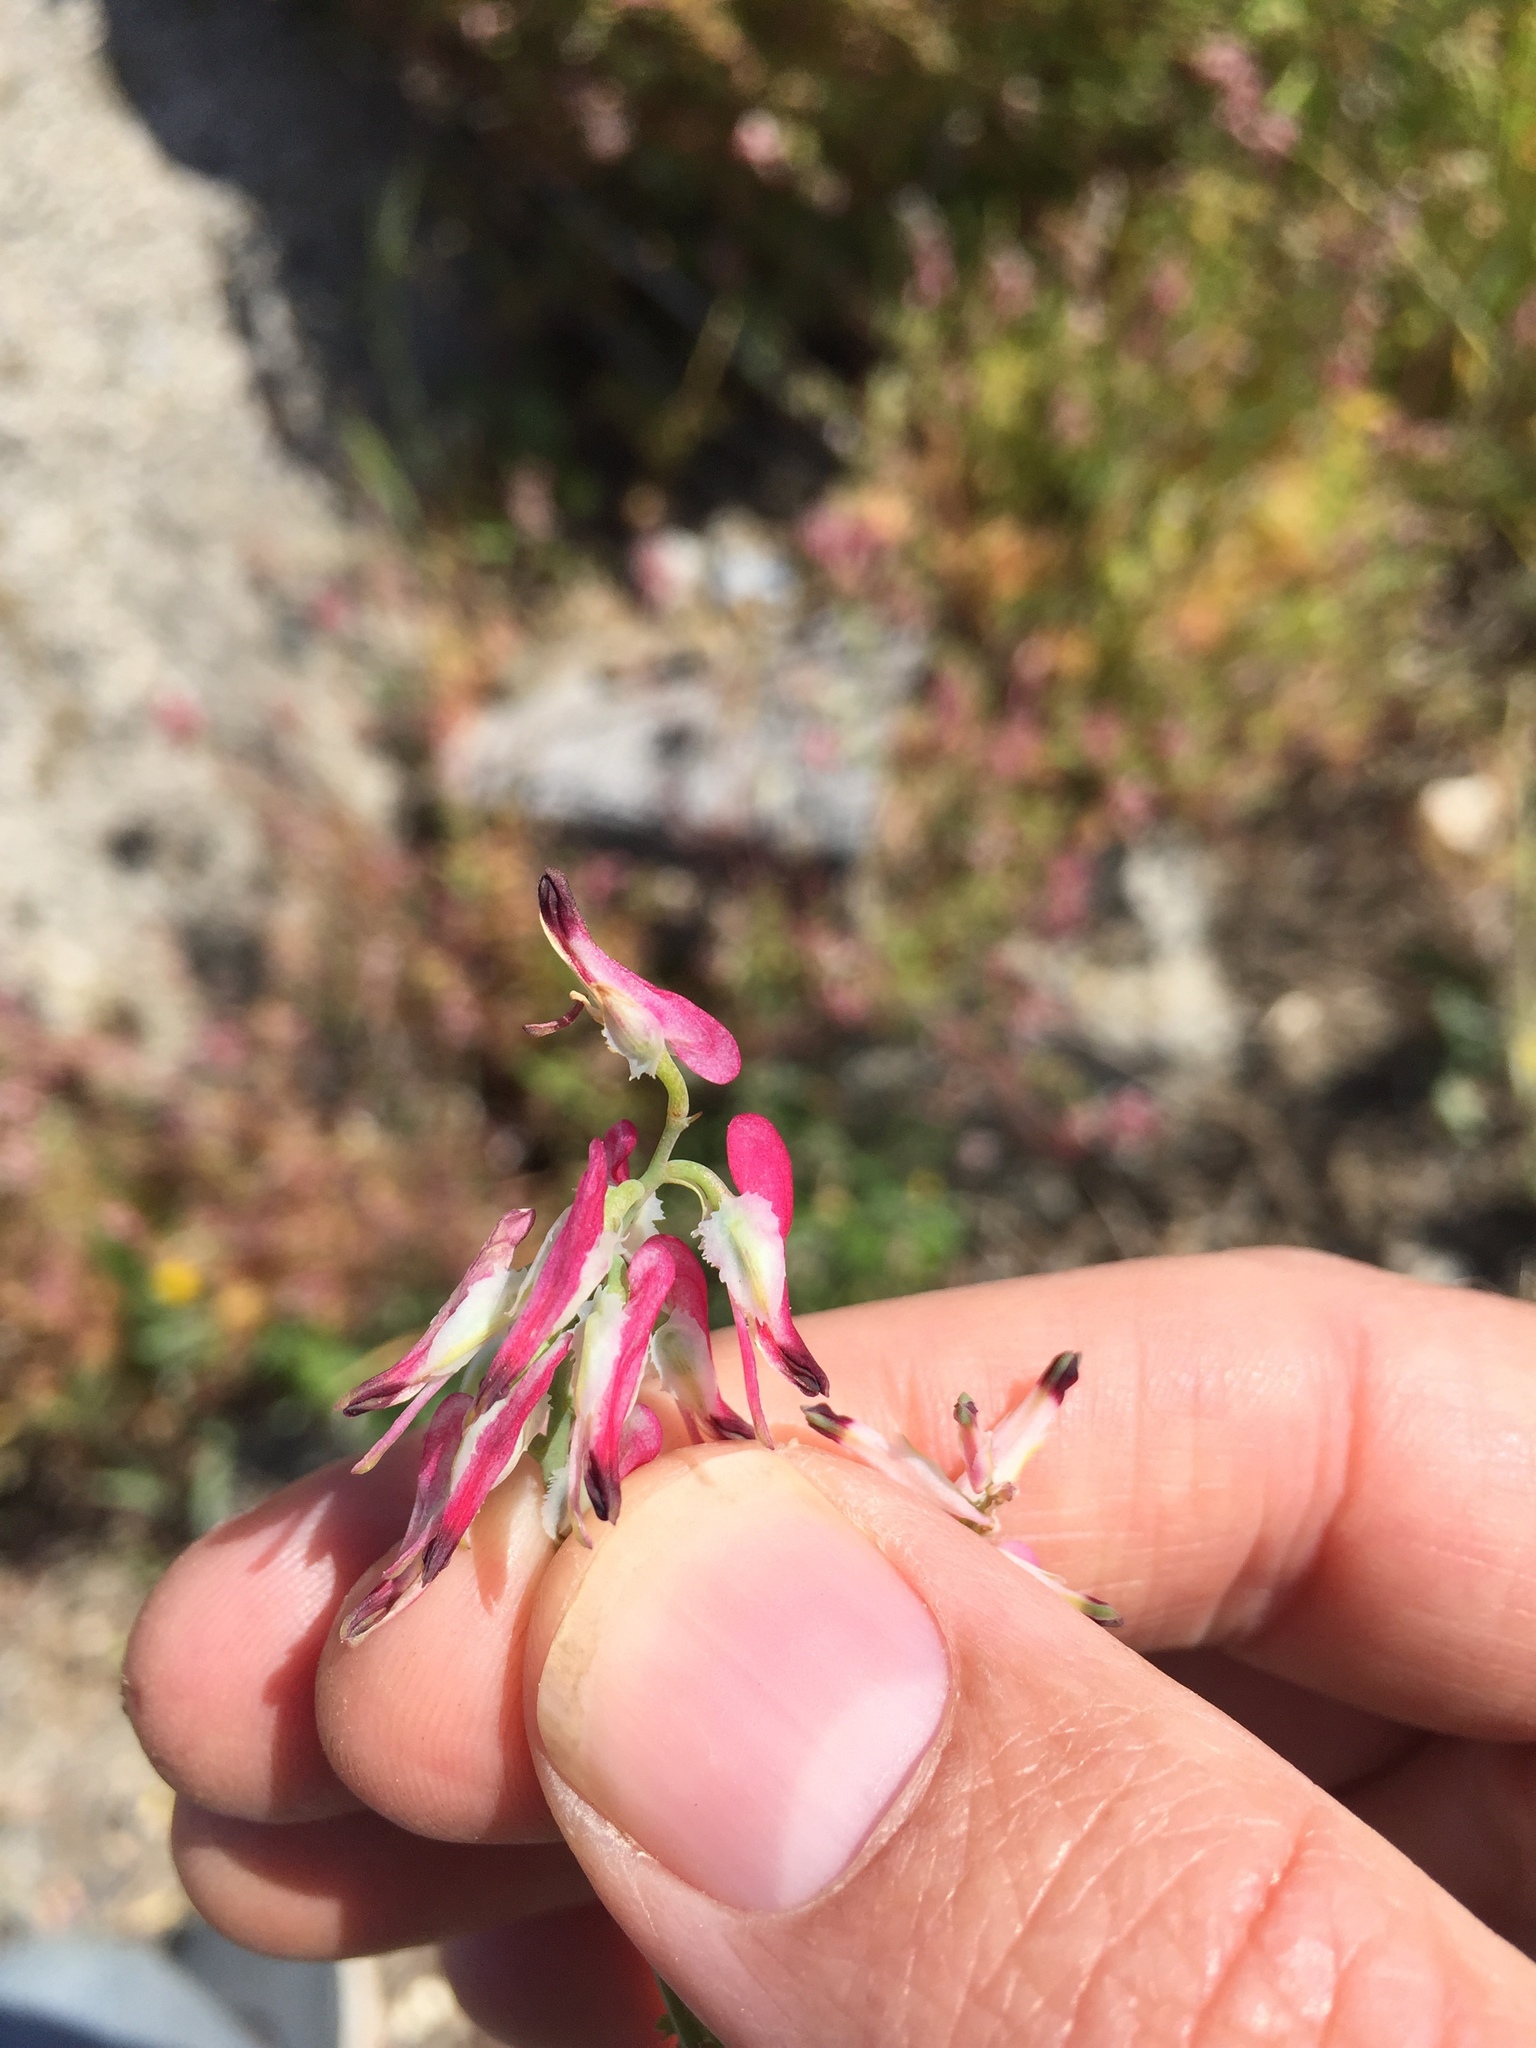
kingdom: Plantae
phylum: Tracheophyta
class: Magnoliopsida
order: Ranunculales
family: Papaveraceae
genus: Fumaria
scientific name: Fumaria capreolata
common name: White ramping-fumitory
